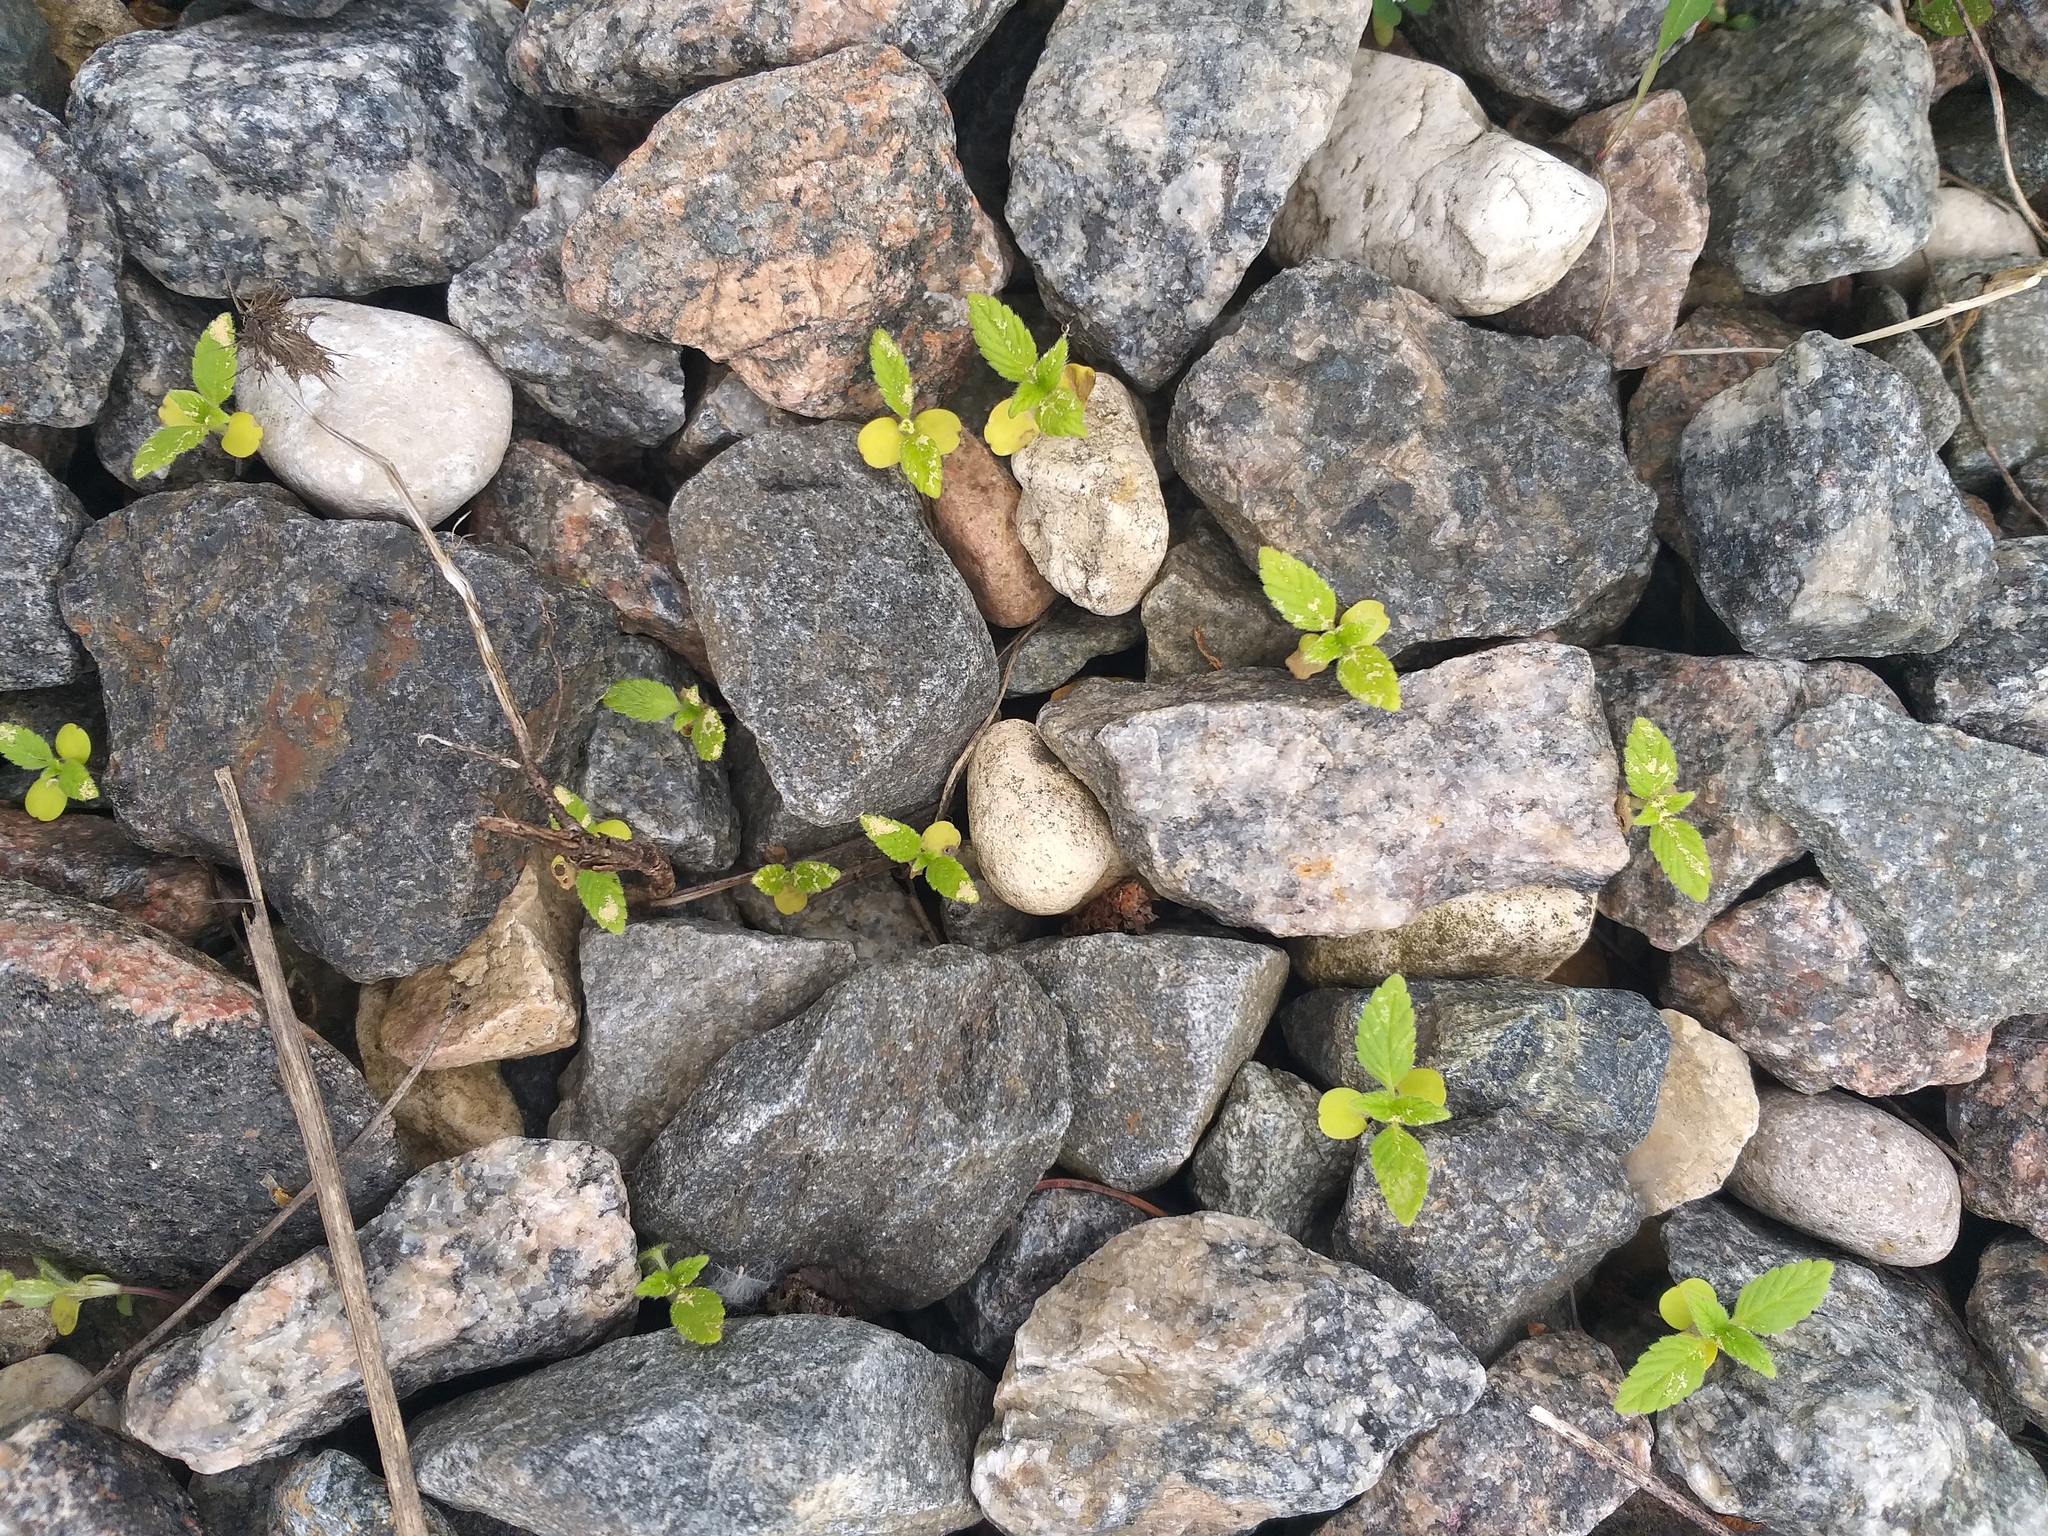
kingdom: Plantae
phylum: Tracheophyta
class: Magnoliopsida
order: Lamiales
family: Lamiaceae
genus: Galeopsis
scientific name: Galeopsis
